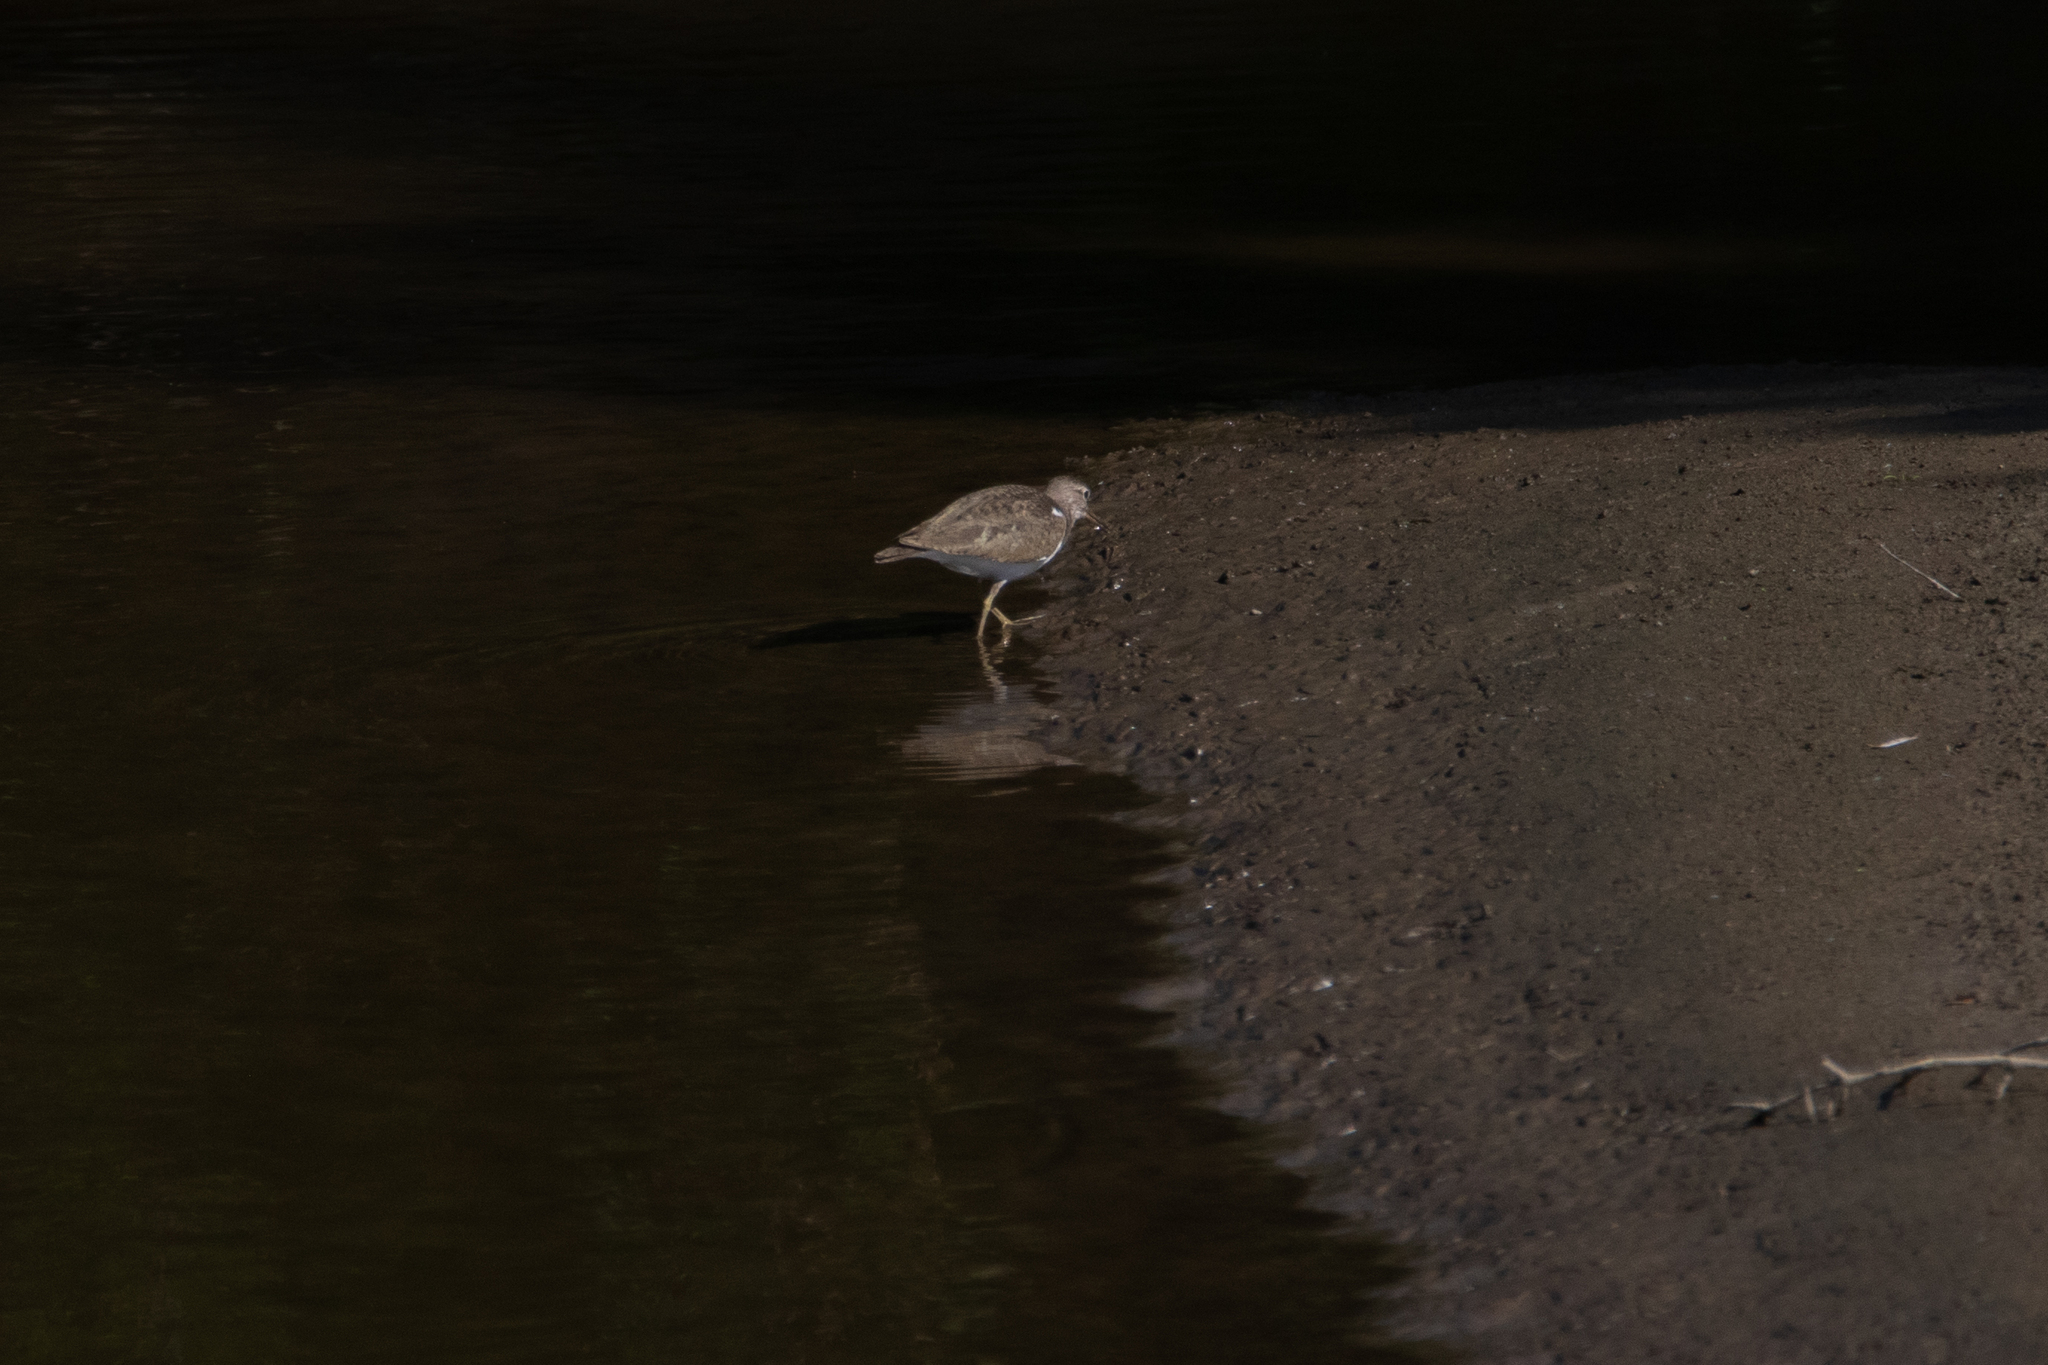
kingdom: Animalia
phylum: Chordata
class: Aves
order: Charadriiformes
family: Scolopacidae
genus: Actitis
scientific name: Actitis hypoleucos
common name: Common sandpiper
